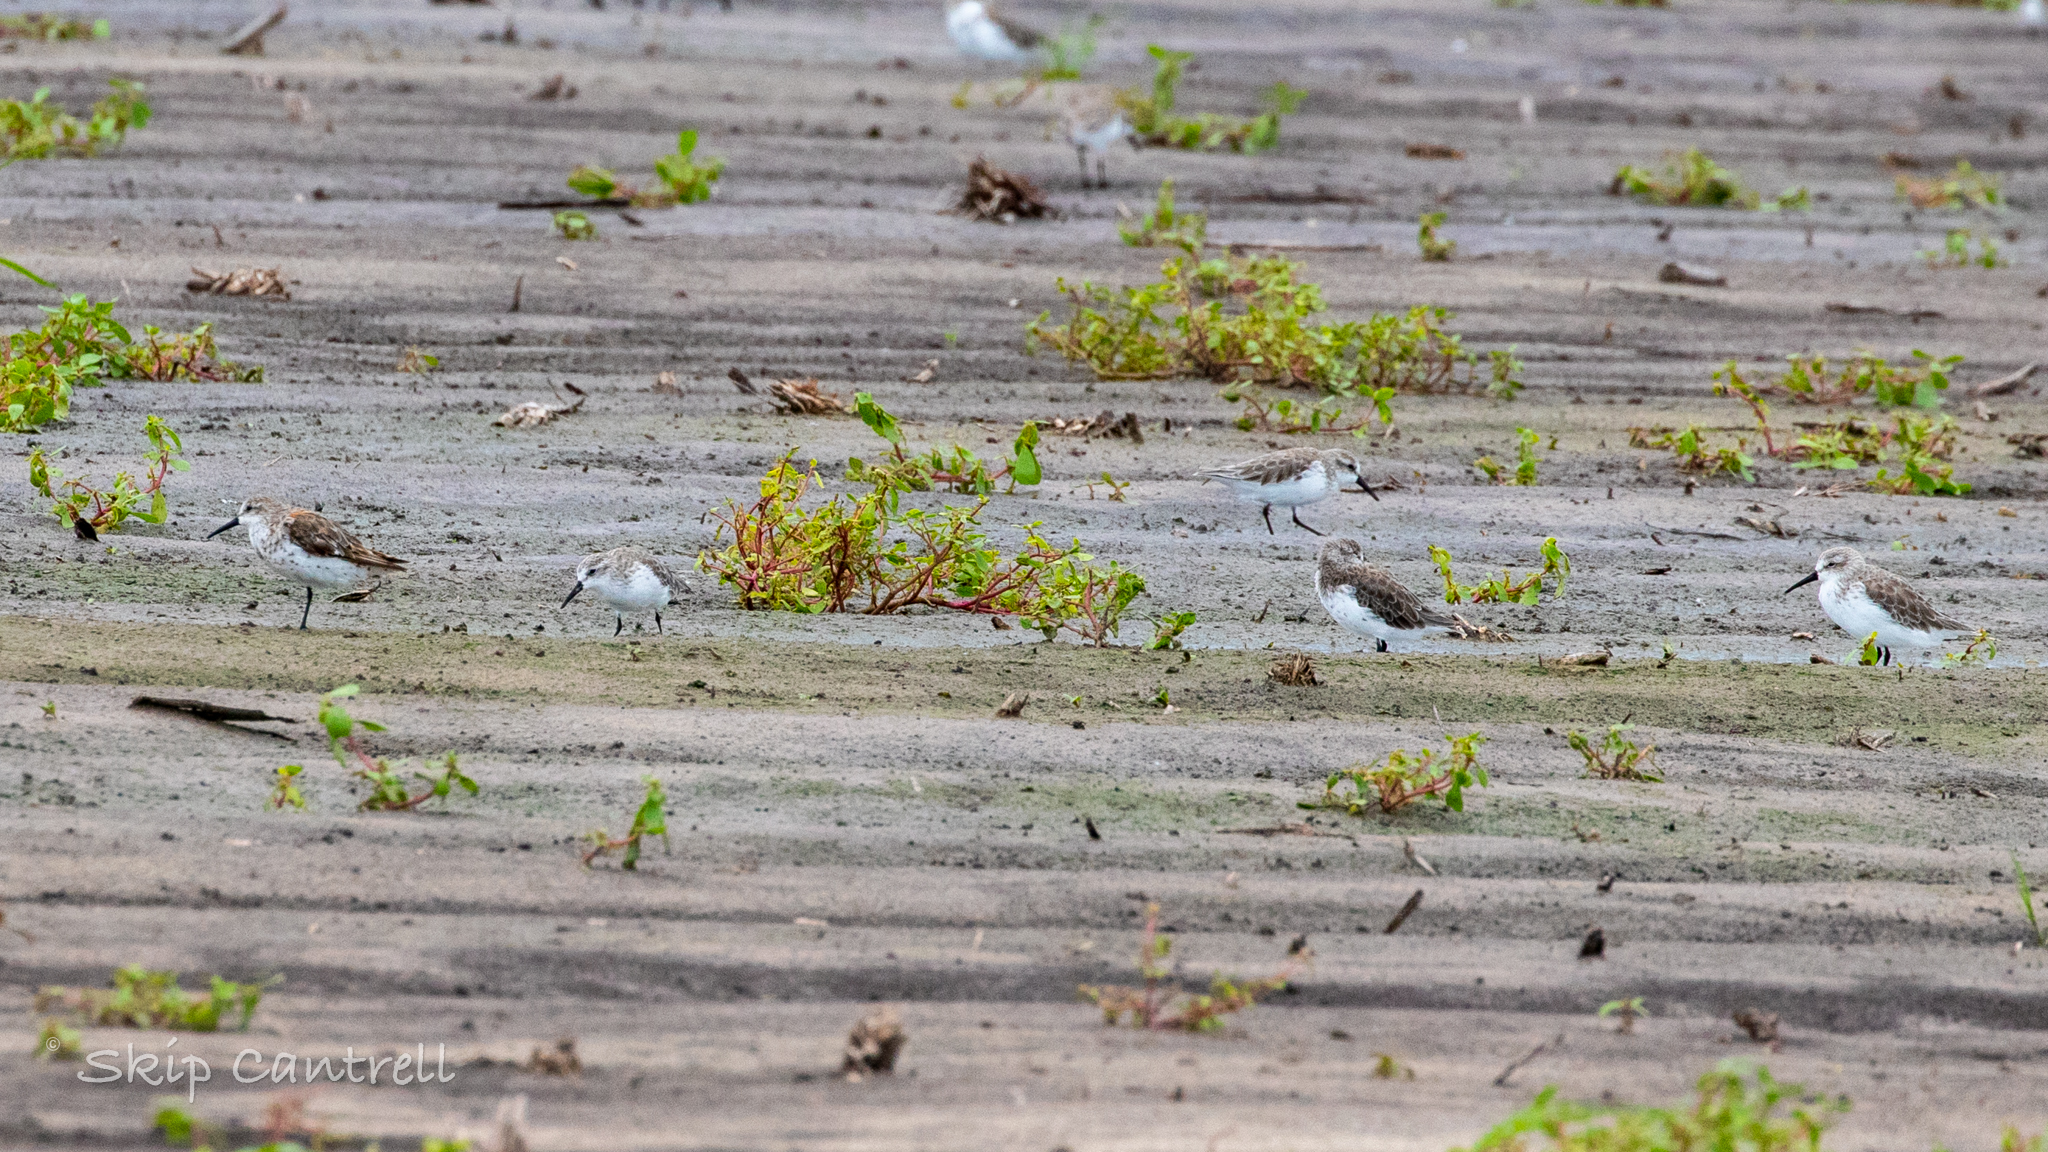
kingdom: Animalia
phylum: Chordata
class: Aves
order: Charadriiformes
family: Scolopacidae
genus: Calidris
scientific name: Calidris mauri
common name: Western sandpiper
